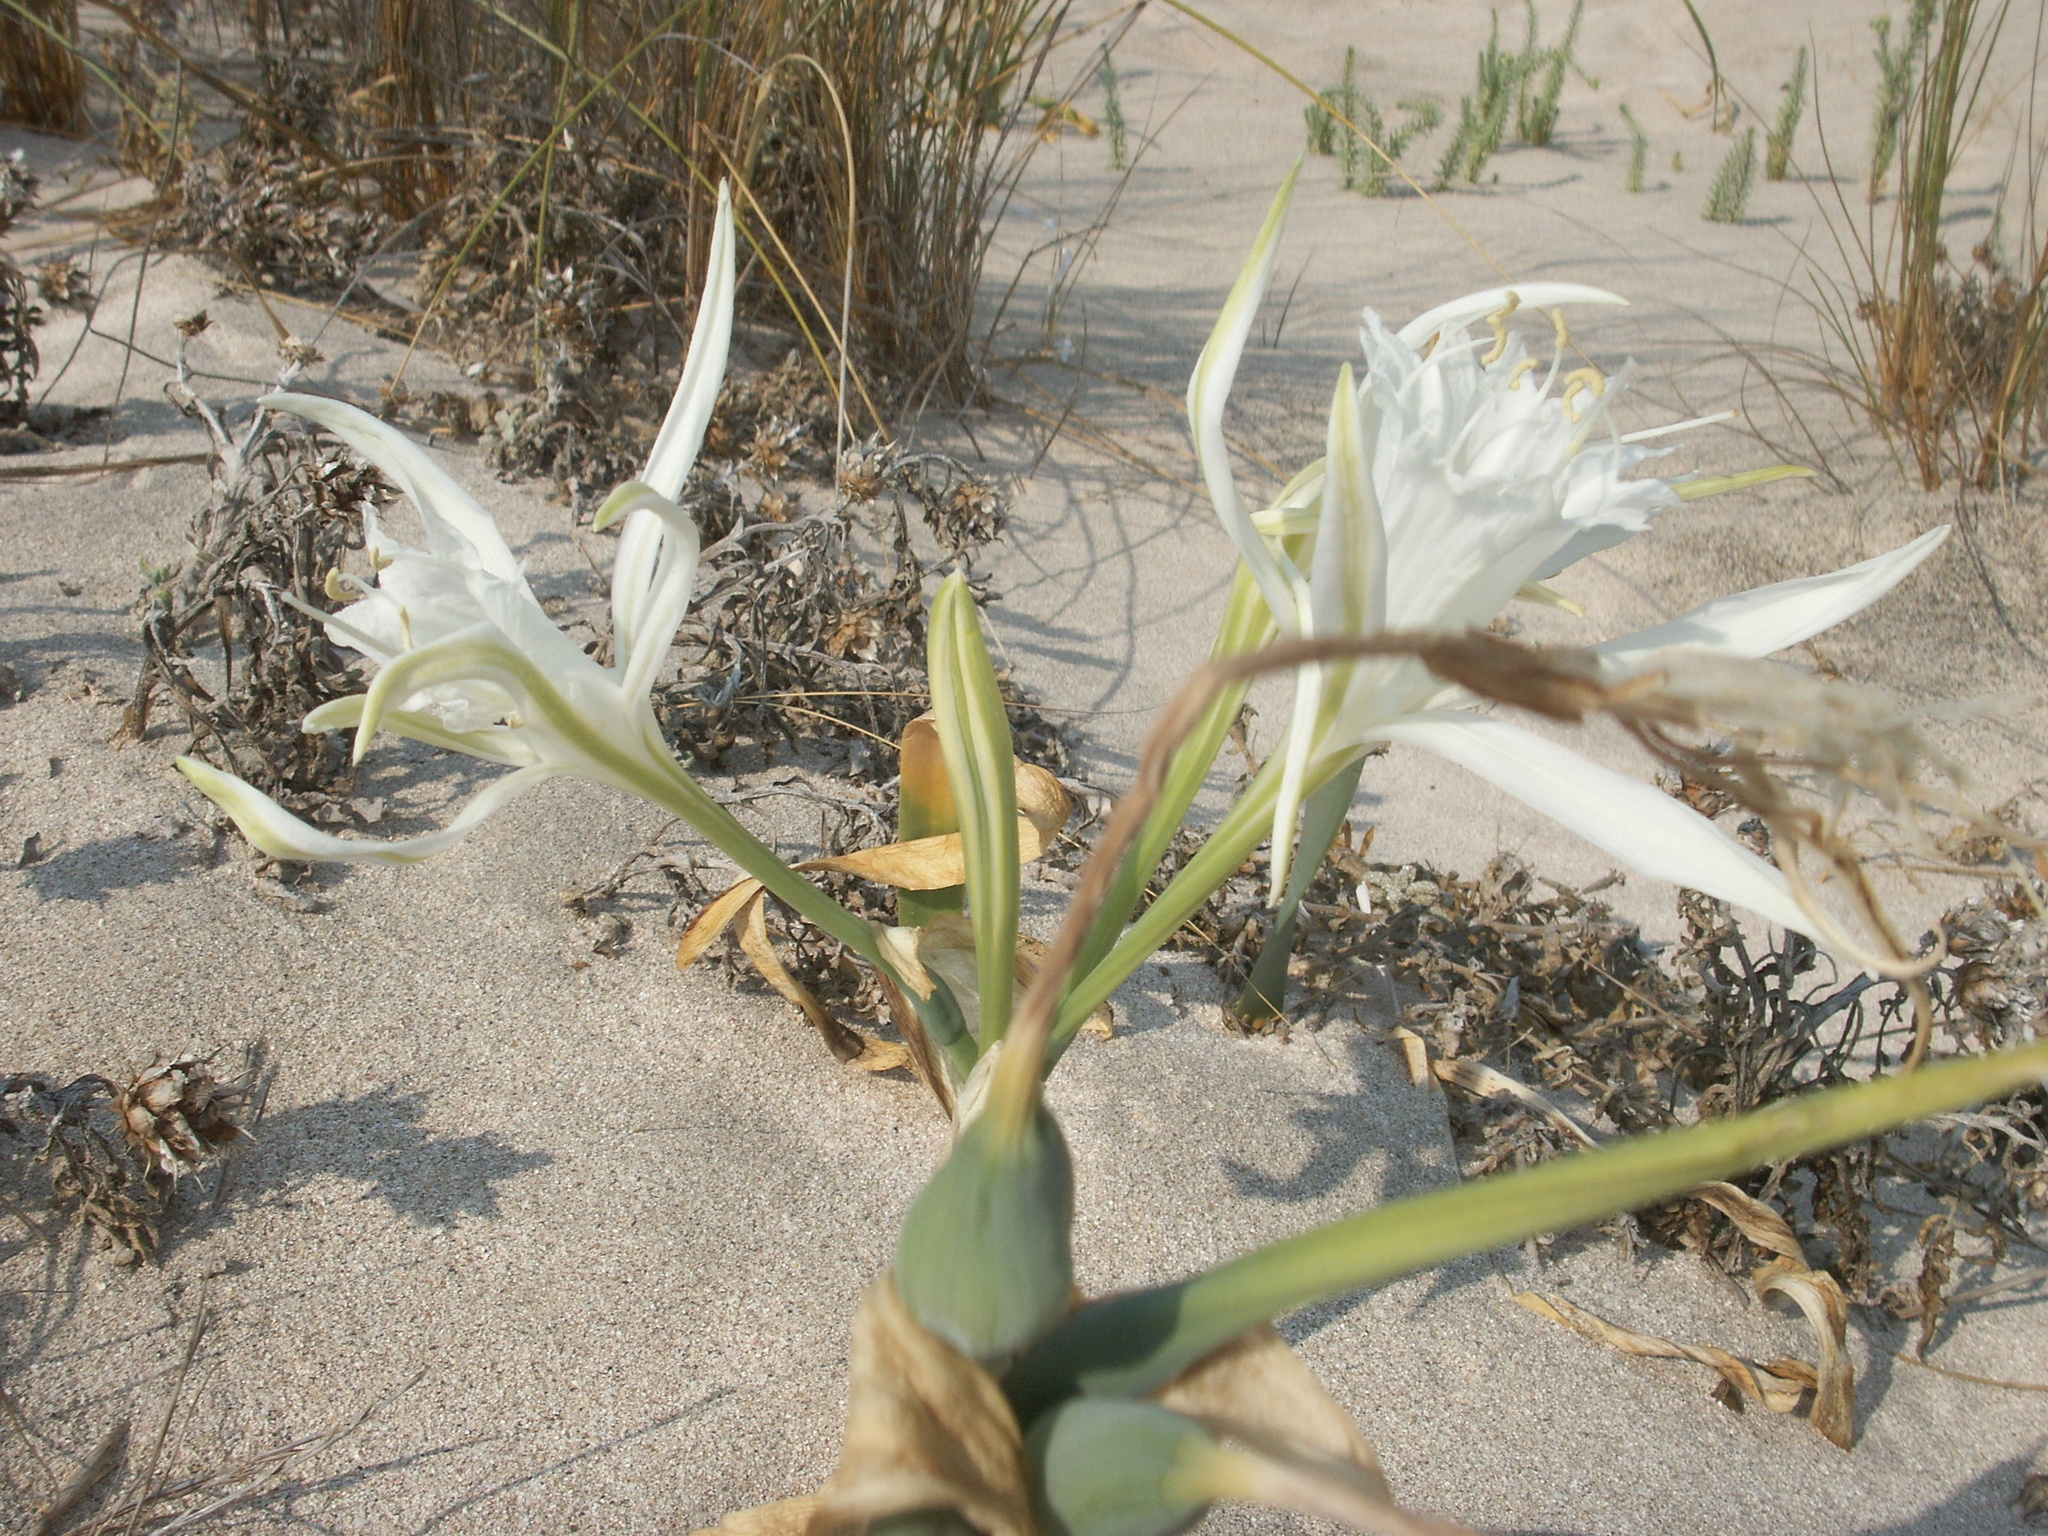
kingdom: Plantae
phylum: Tracheophyta
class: Liliopsida
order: Asparagales
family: Amaryllidaceae
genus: Pancratium
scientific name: Pancratium maritimum
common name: Sea-daffodil
